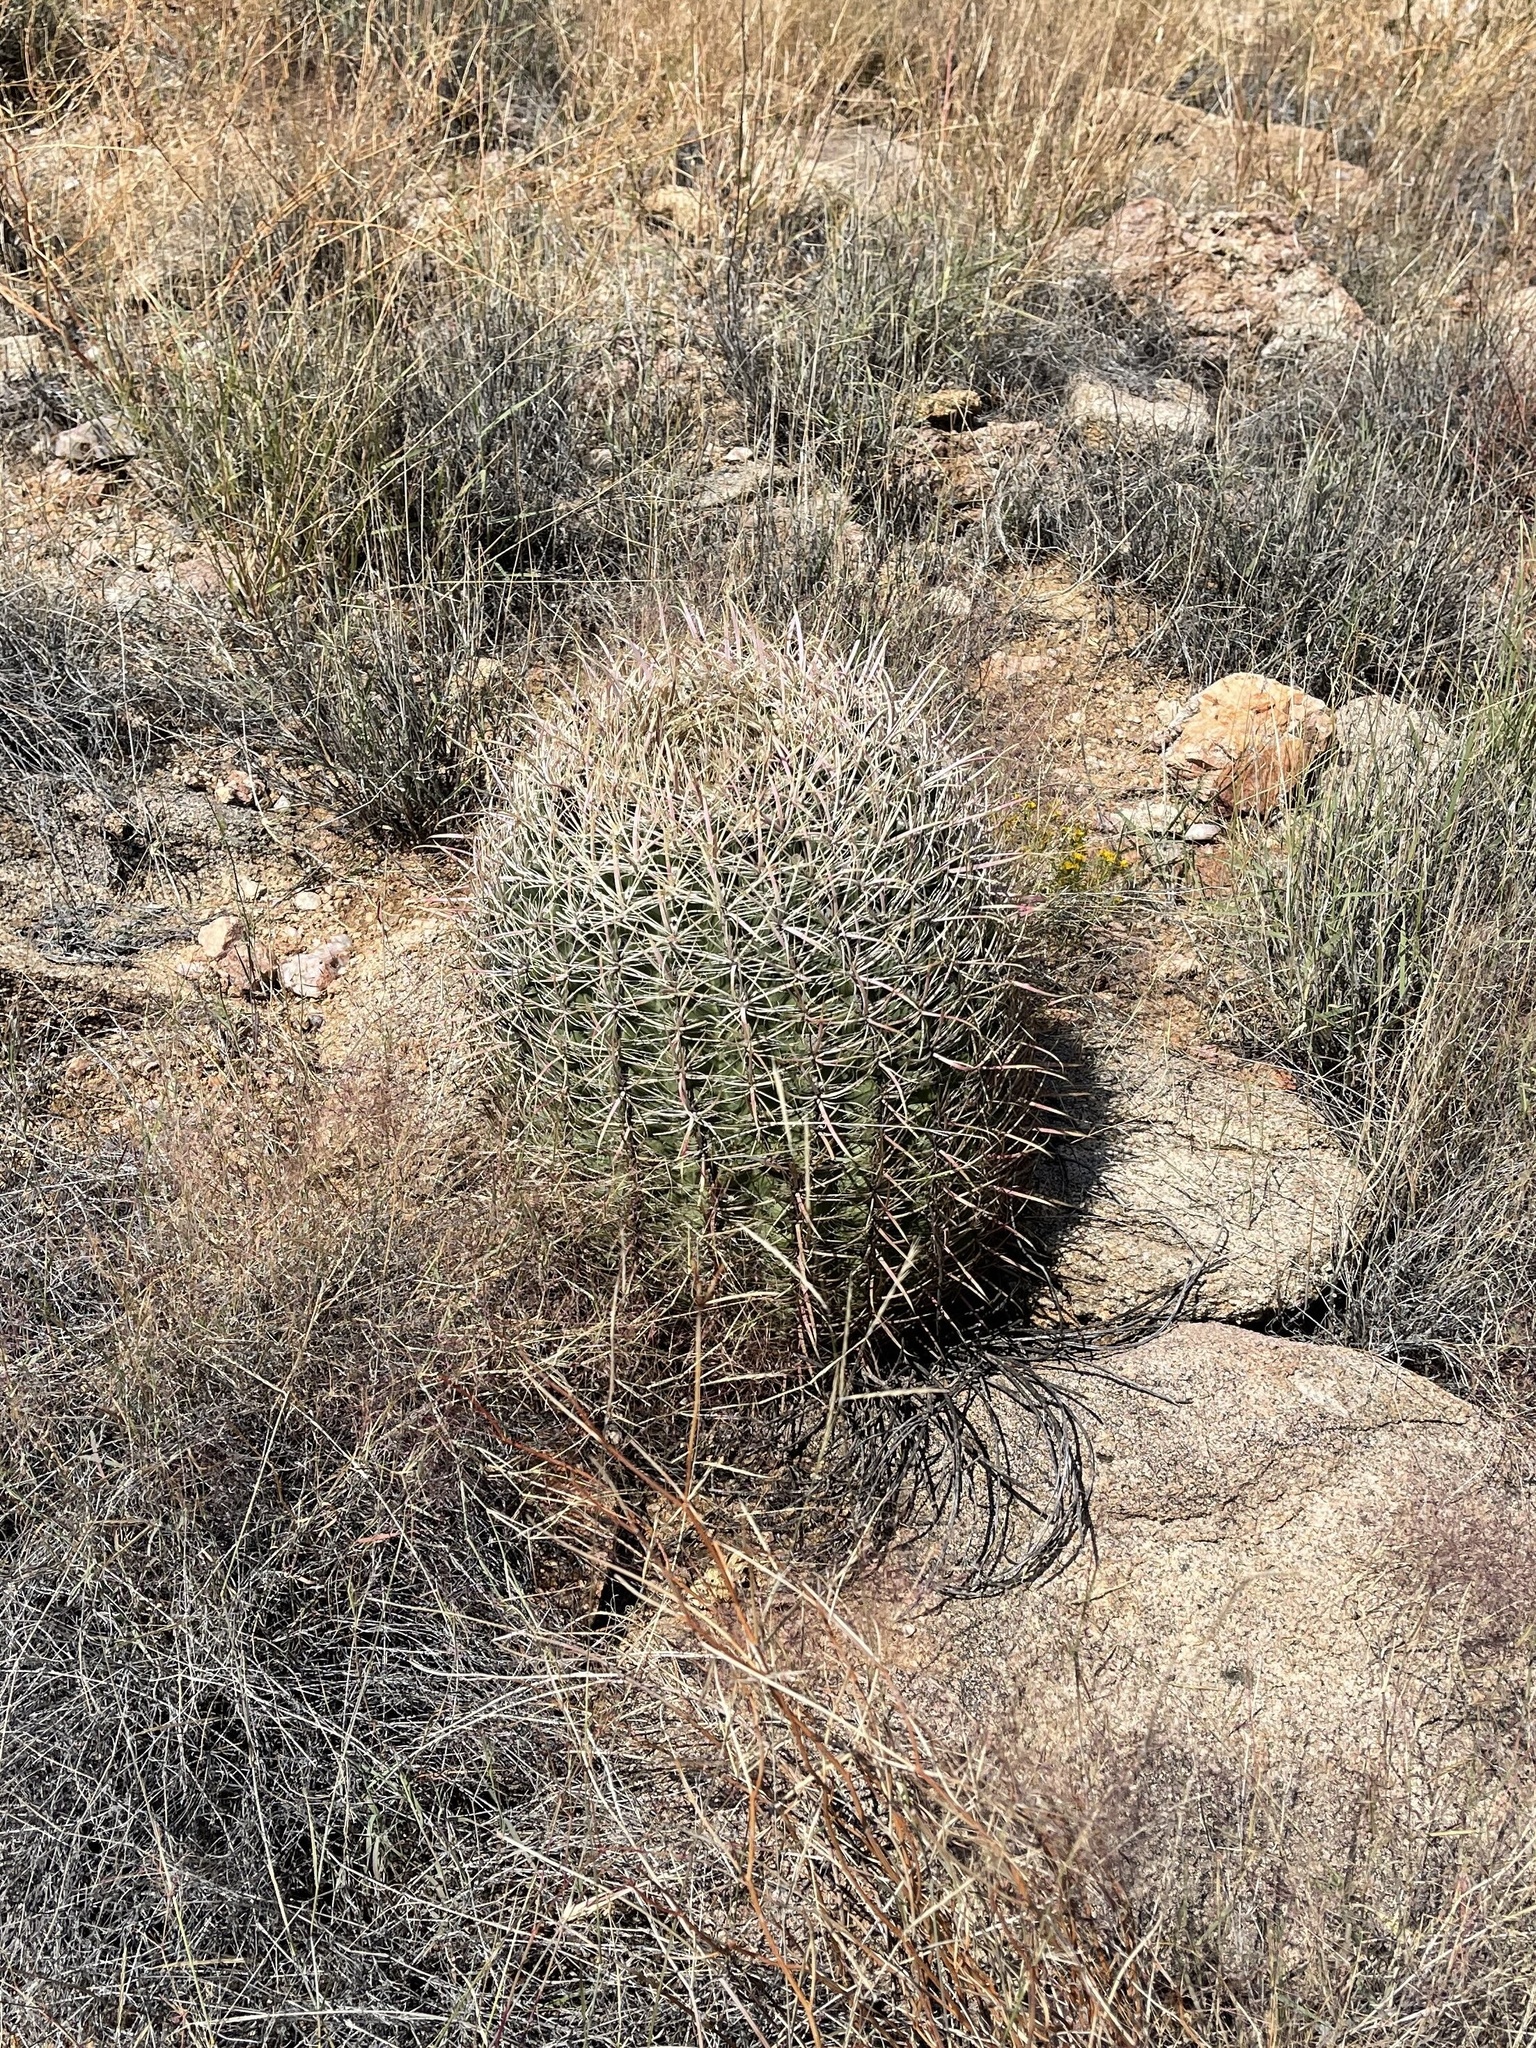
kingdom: Plantae
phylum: Tracheophyta
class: Magnoliopsida
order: Caryophyllales
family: Cactaceae
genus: Ferocactus
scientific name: Ferocactus cylindraceus
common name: California barrel cactus
